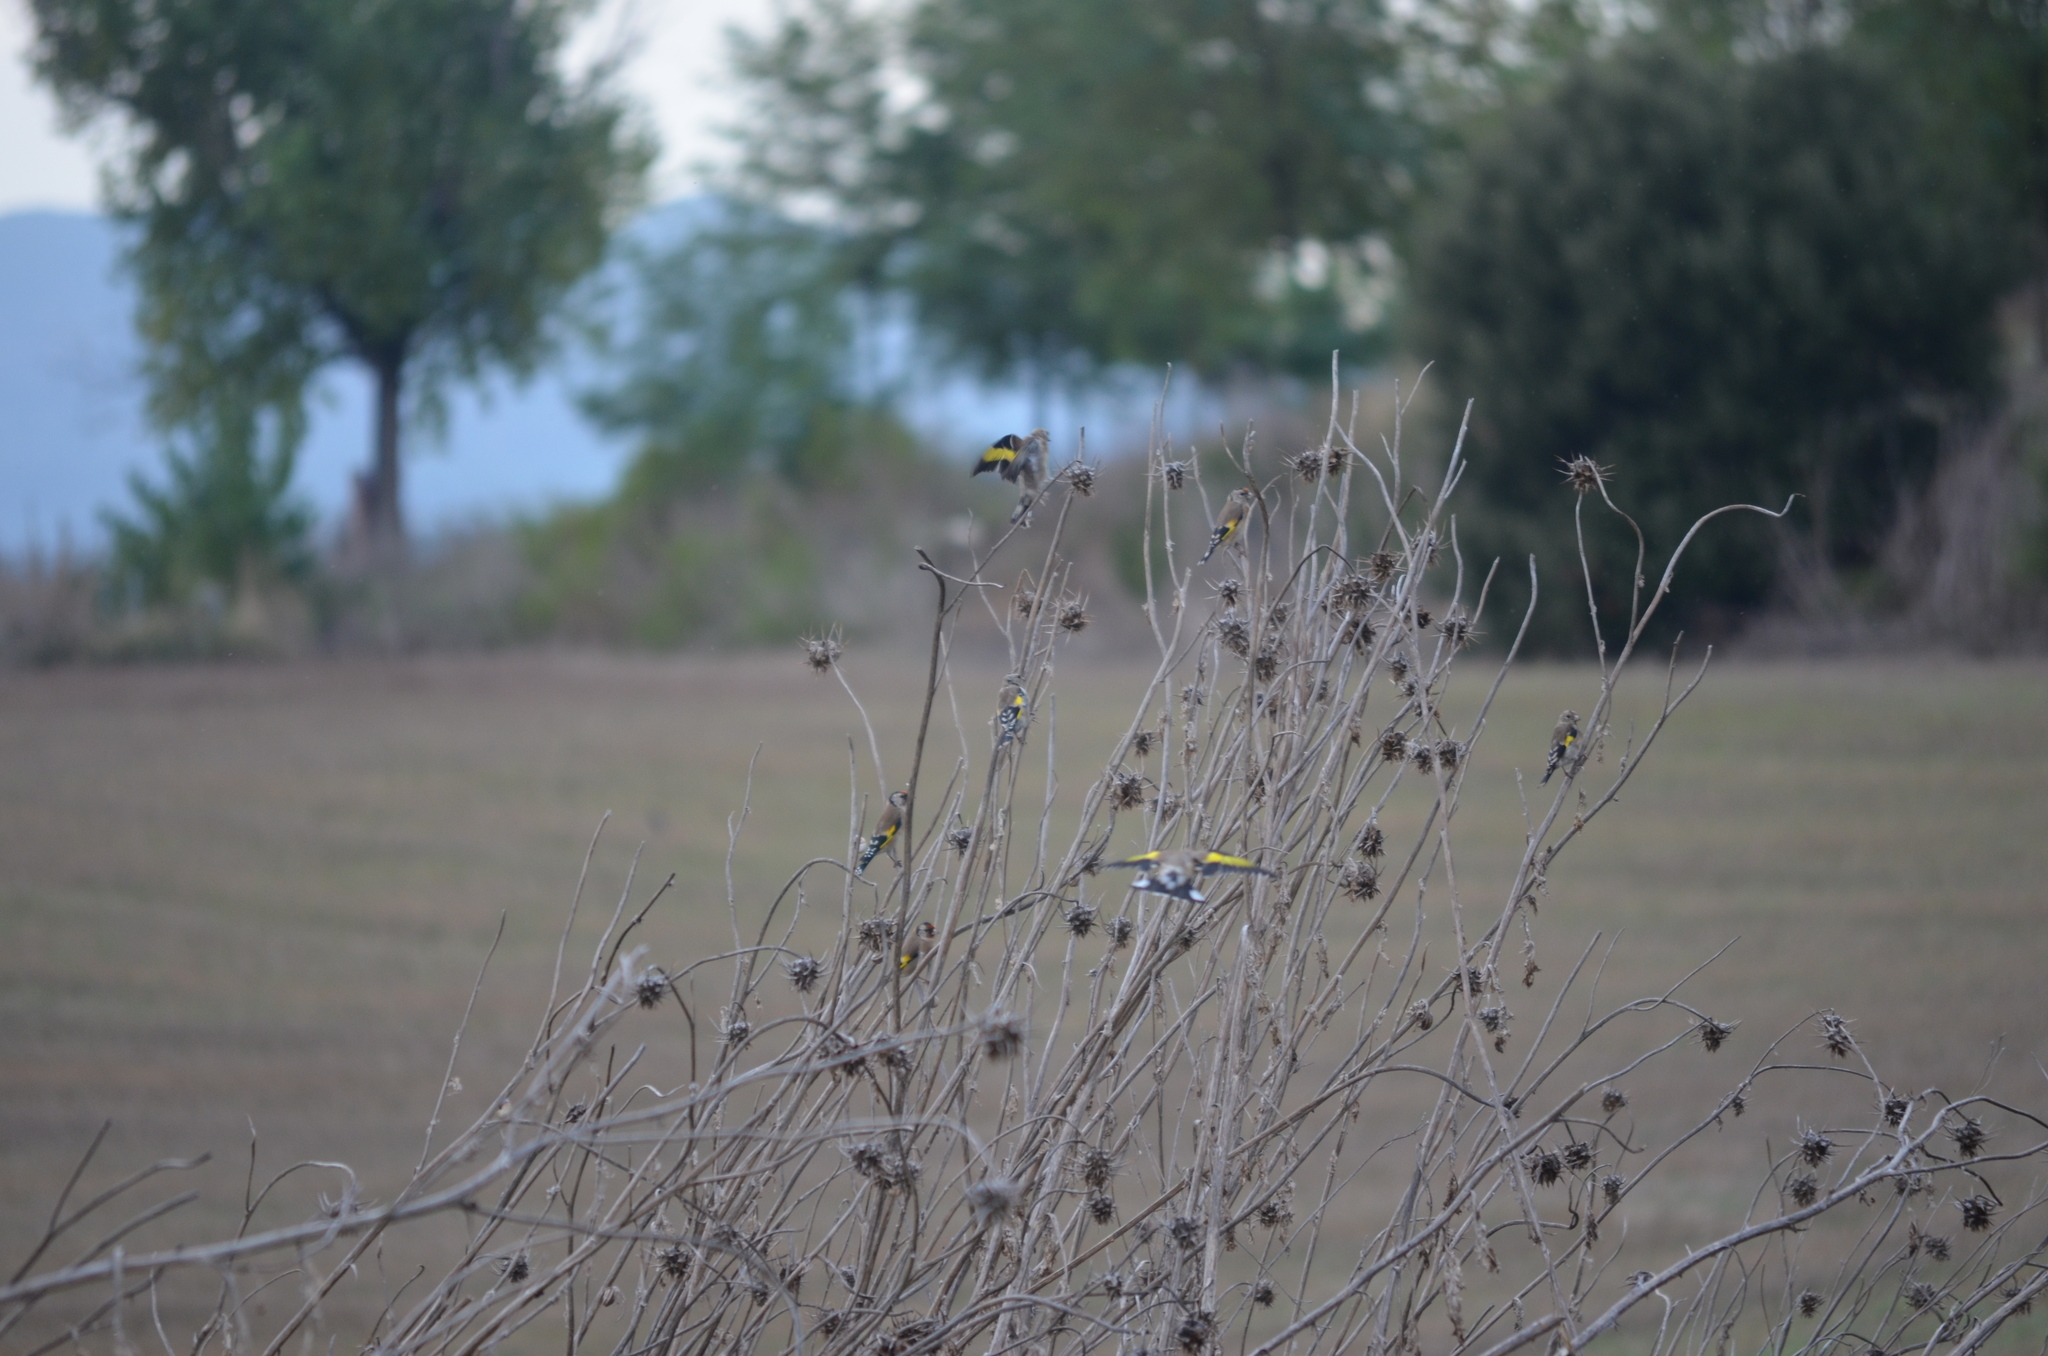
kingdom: Animalia
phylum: Chordata
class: Aves
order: Passeriformes
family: Fringillidae
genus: Carduelis
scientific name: Carduelis carduelis
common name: European goldfinch
